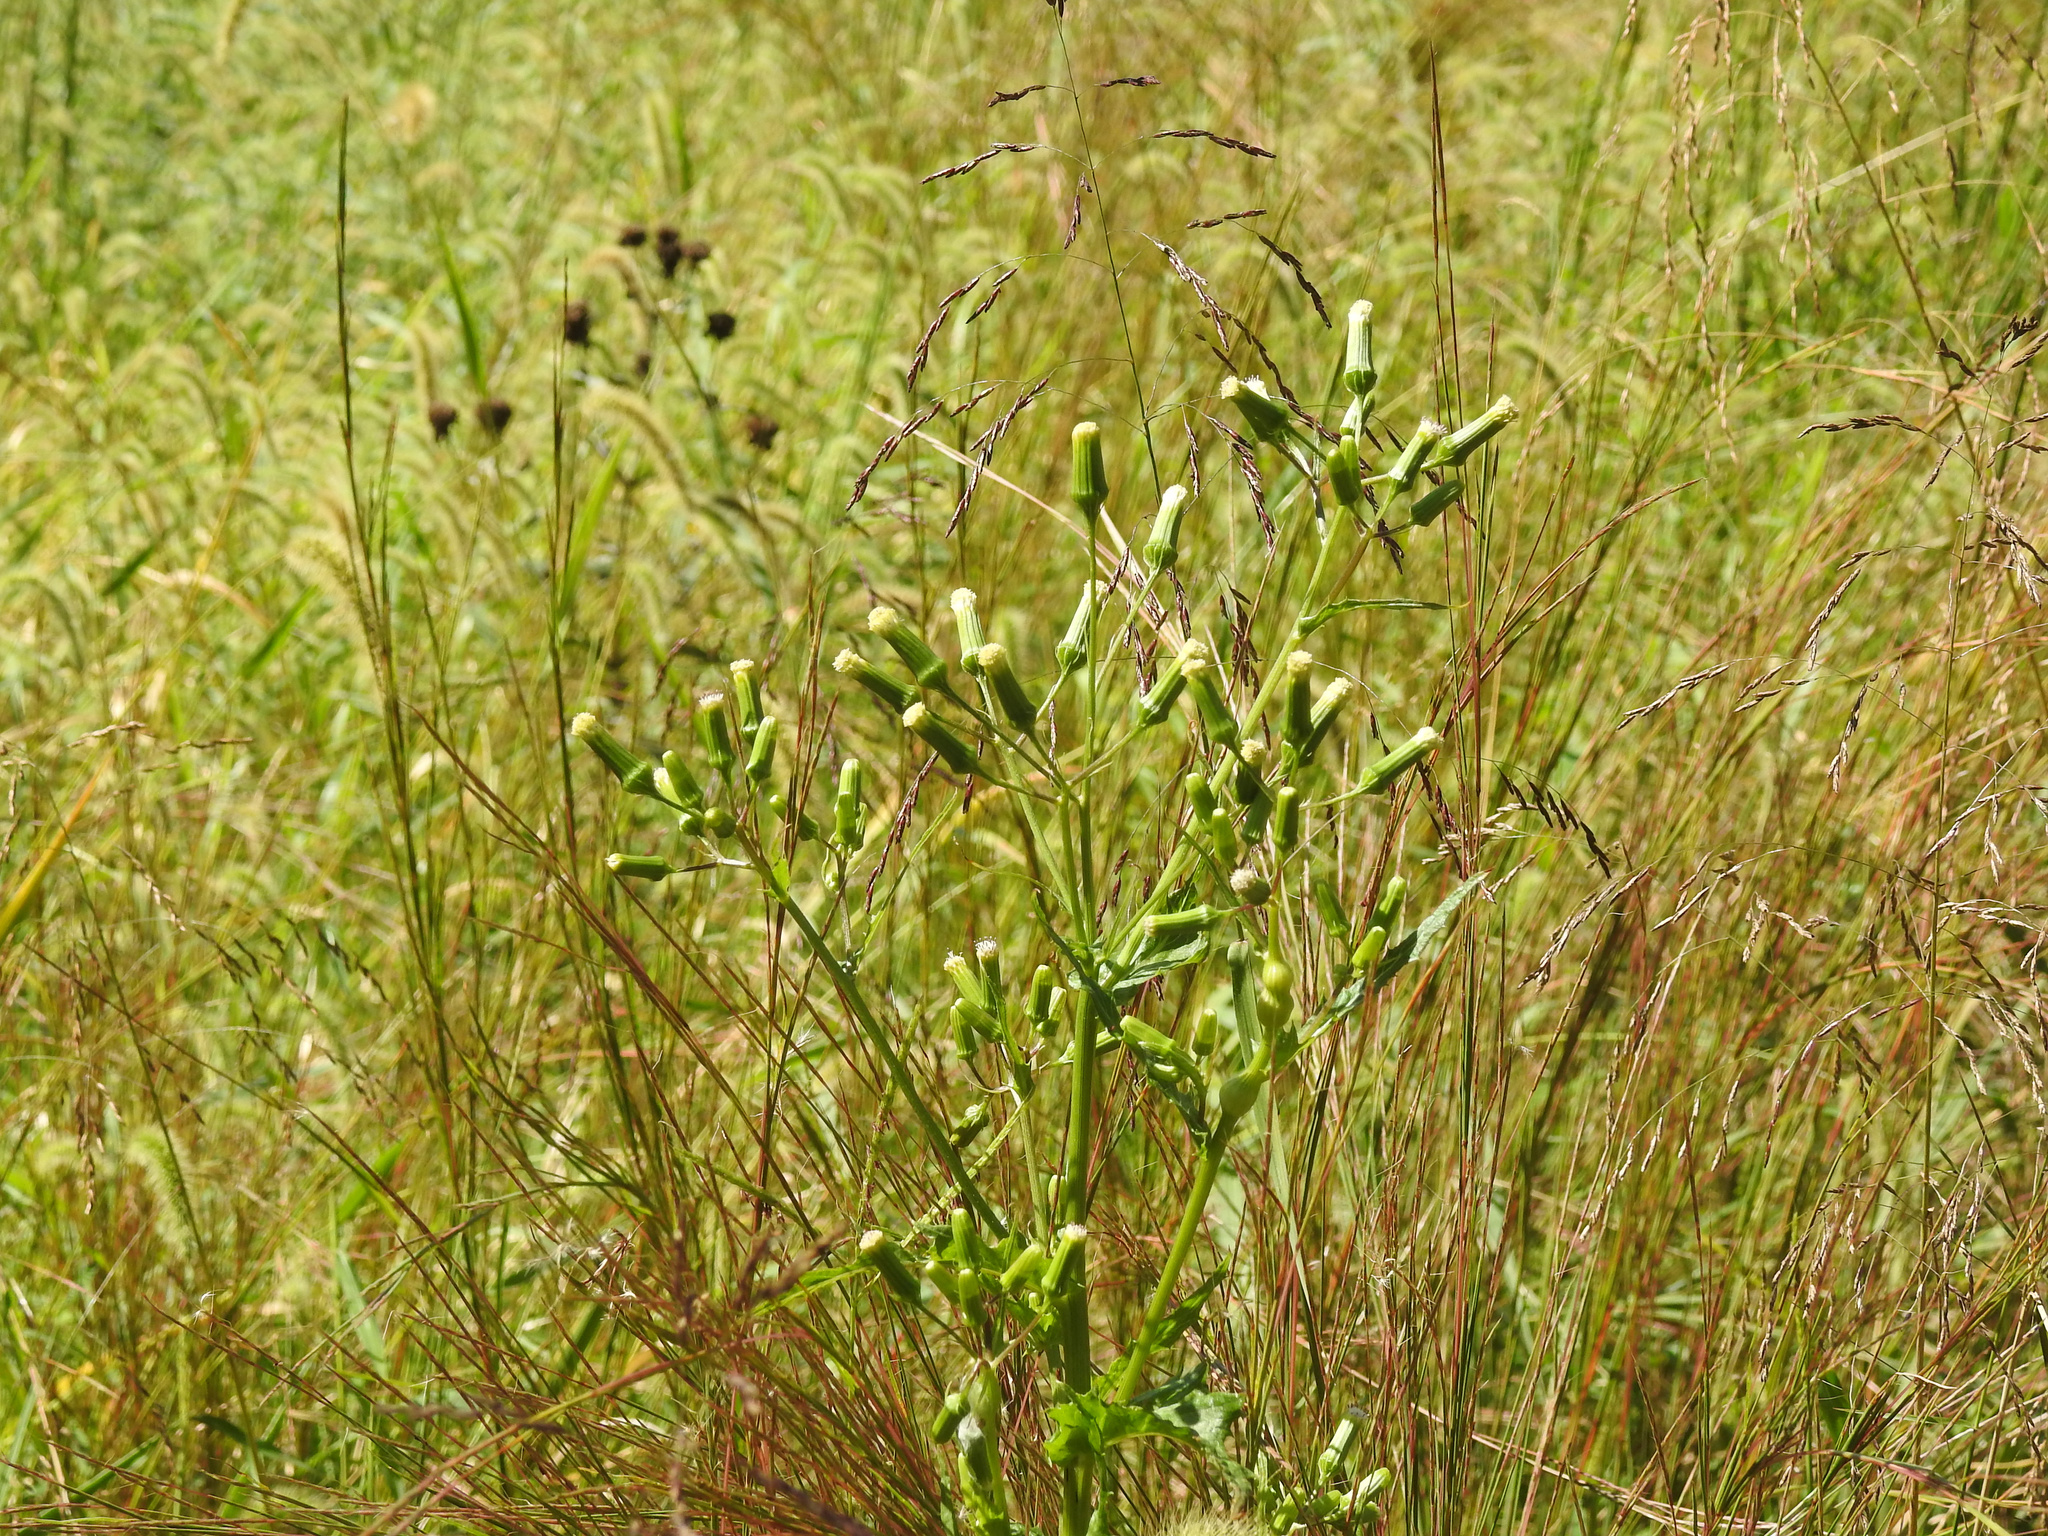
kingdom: Plantae
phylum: Tracheophyta
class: Magnoliopsida
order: Asterales
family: Asteraceae
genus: Erechtites
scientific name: Erechtites hieraciifolius
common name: American burnweed
